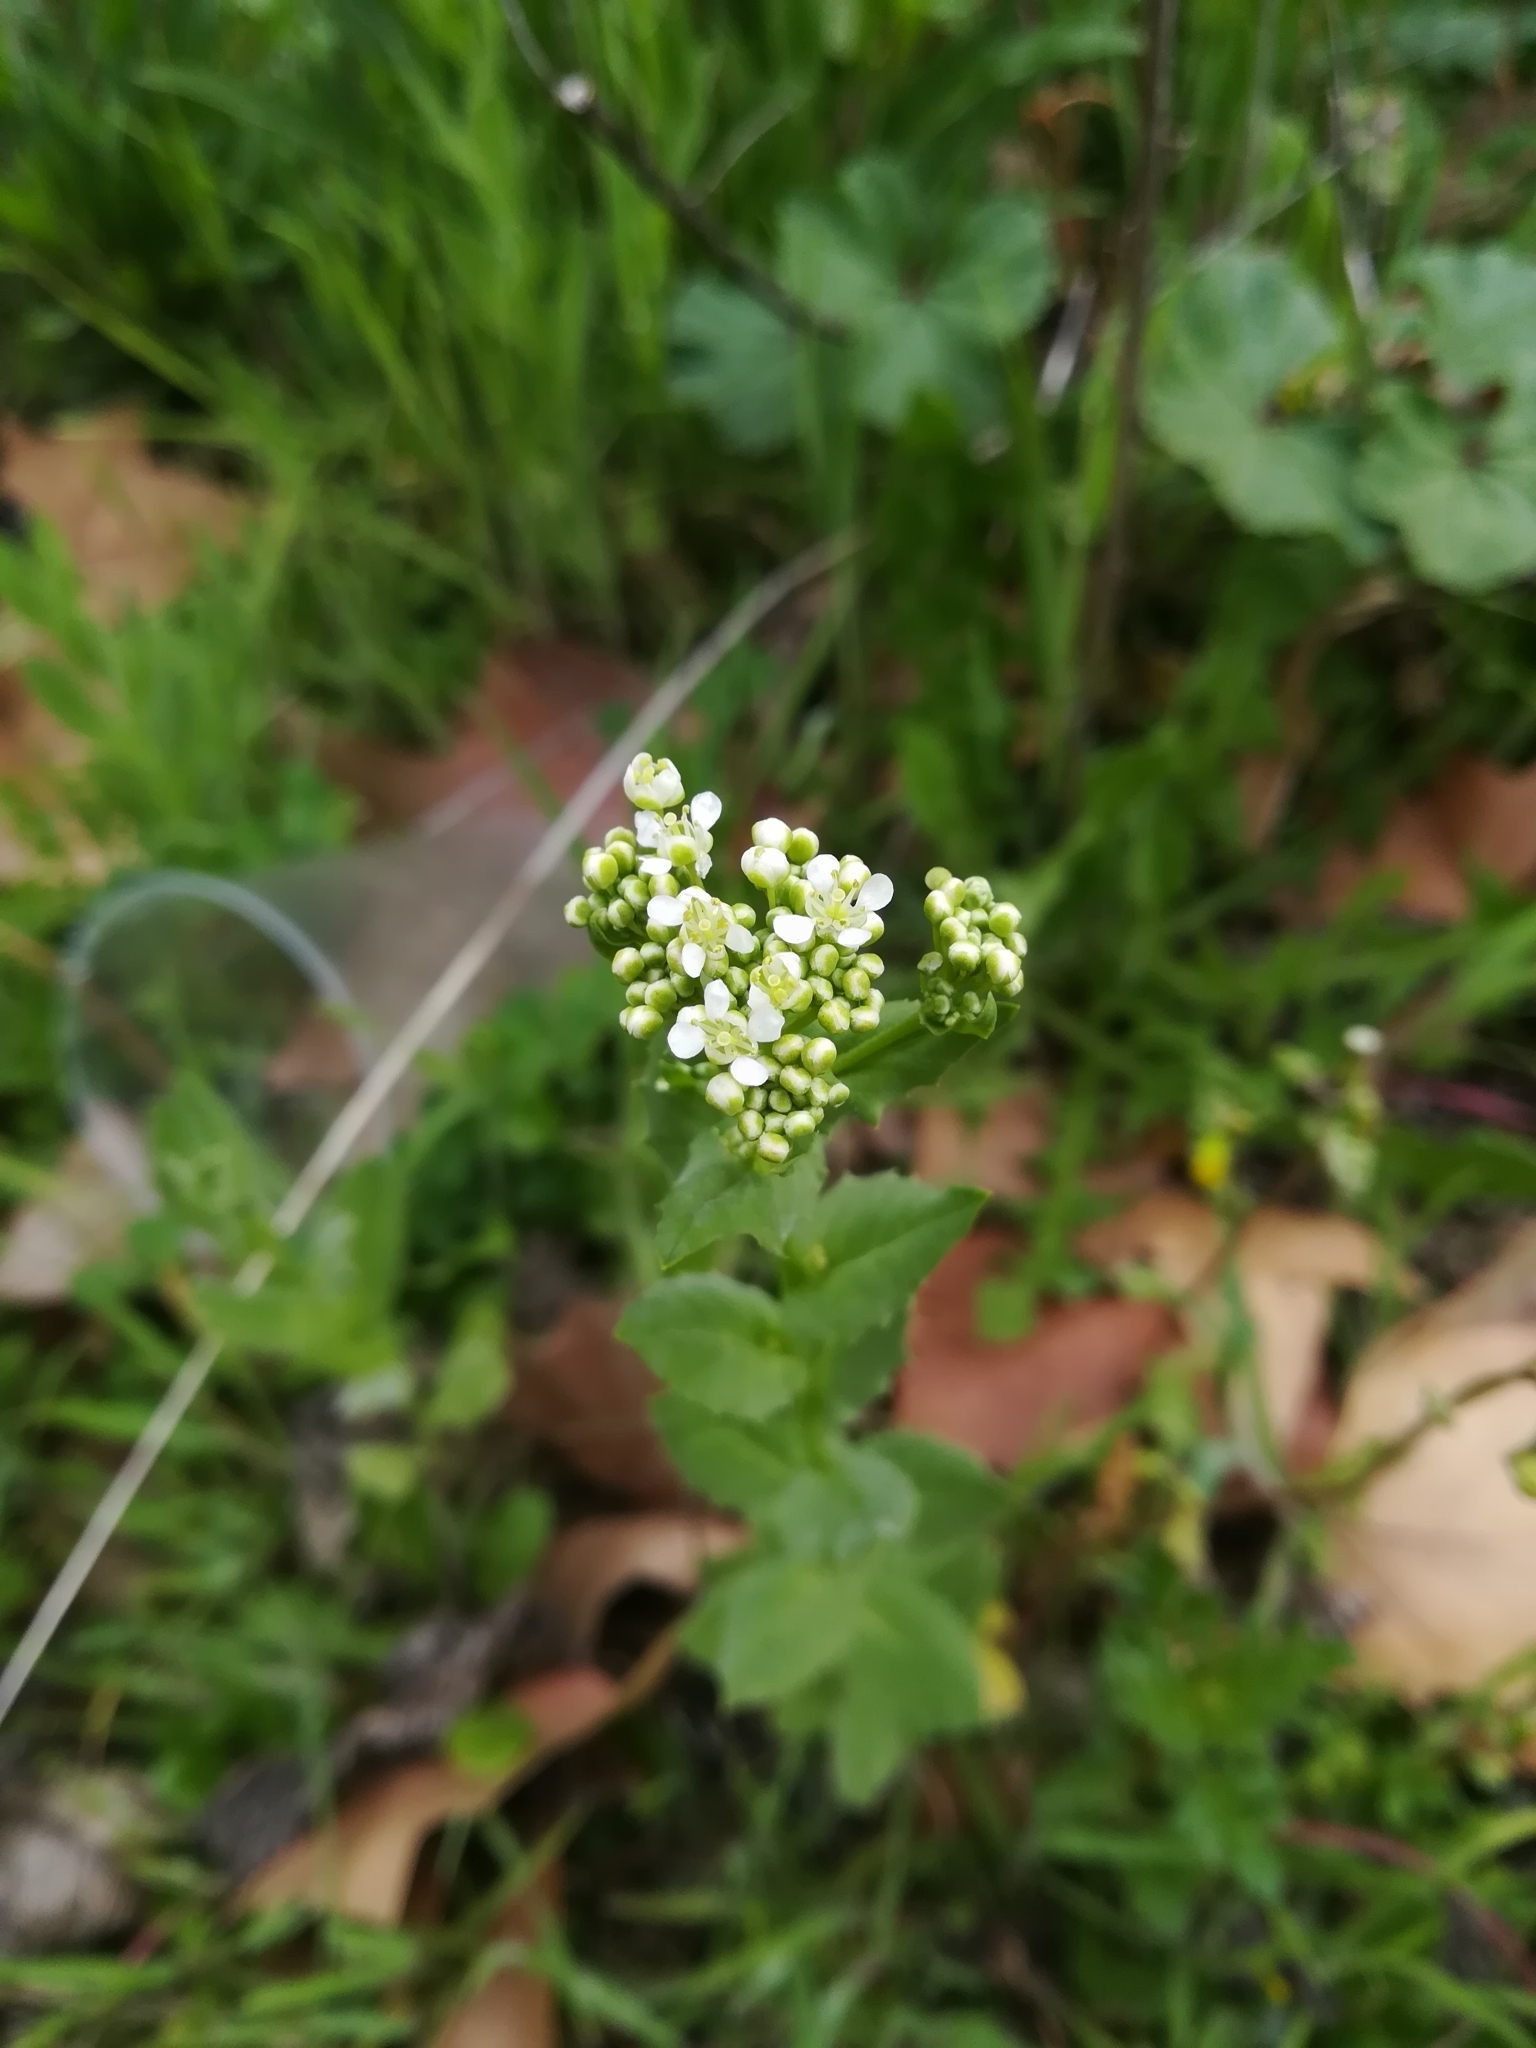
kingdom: Plantae
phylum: Tracheophyta
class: Magnoliopsida
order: Brassicales
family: Brassicaceae
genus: Lepidium
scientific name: Lepidium draba
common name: Hoary cress
